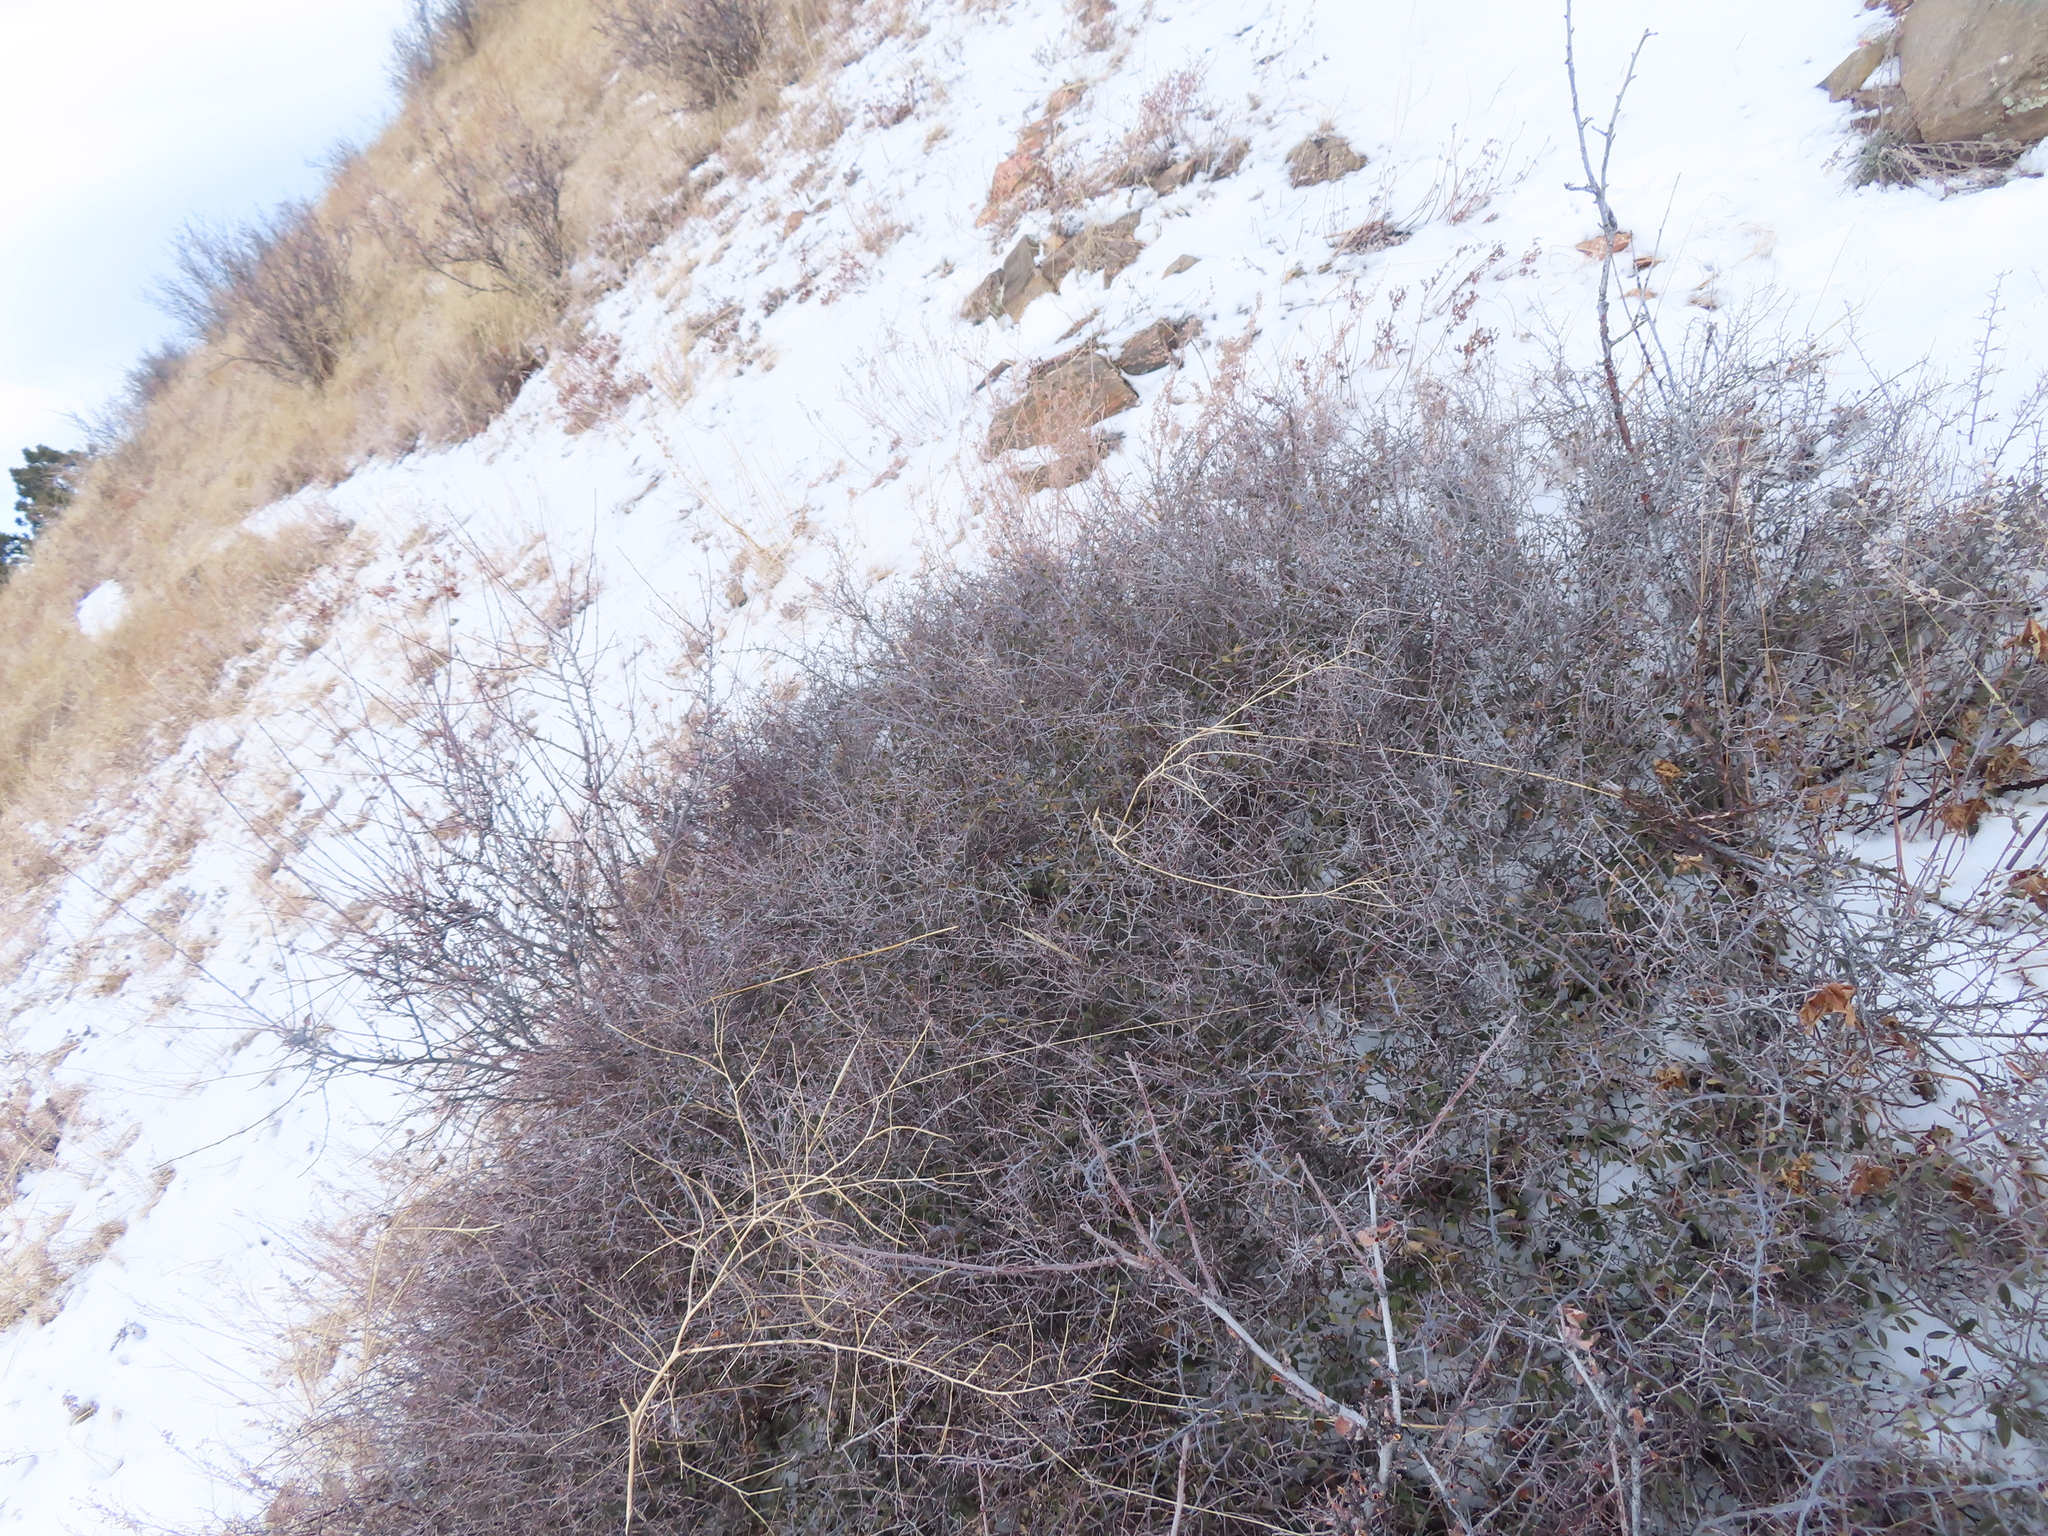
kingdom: Plantae
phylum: Tracheophyta
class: Magnoliopsida
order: Rosales
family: Rhamnaceae
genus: Ceanothus
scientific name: Ceanothus fendleri
